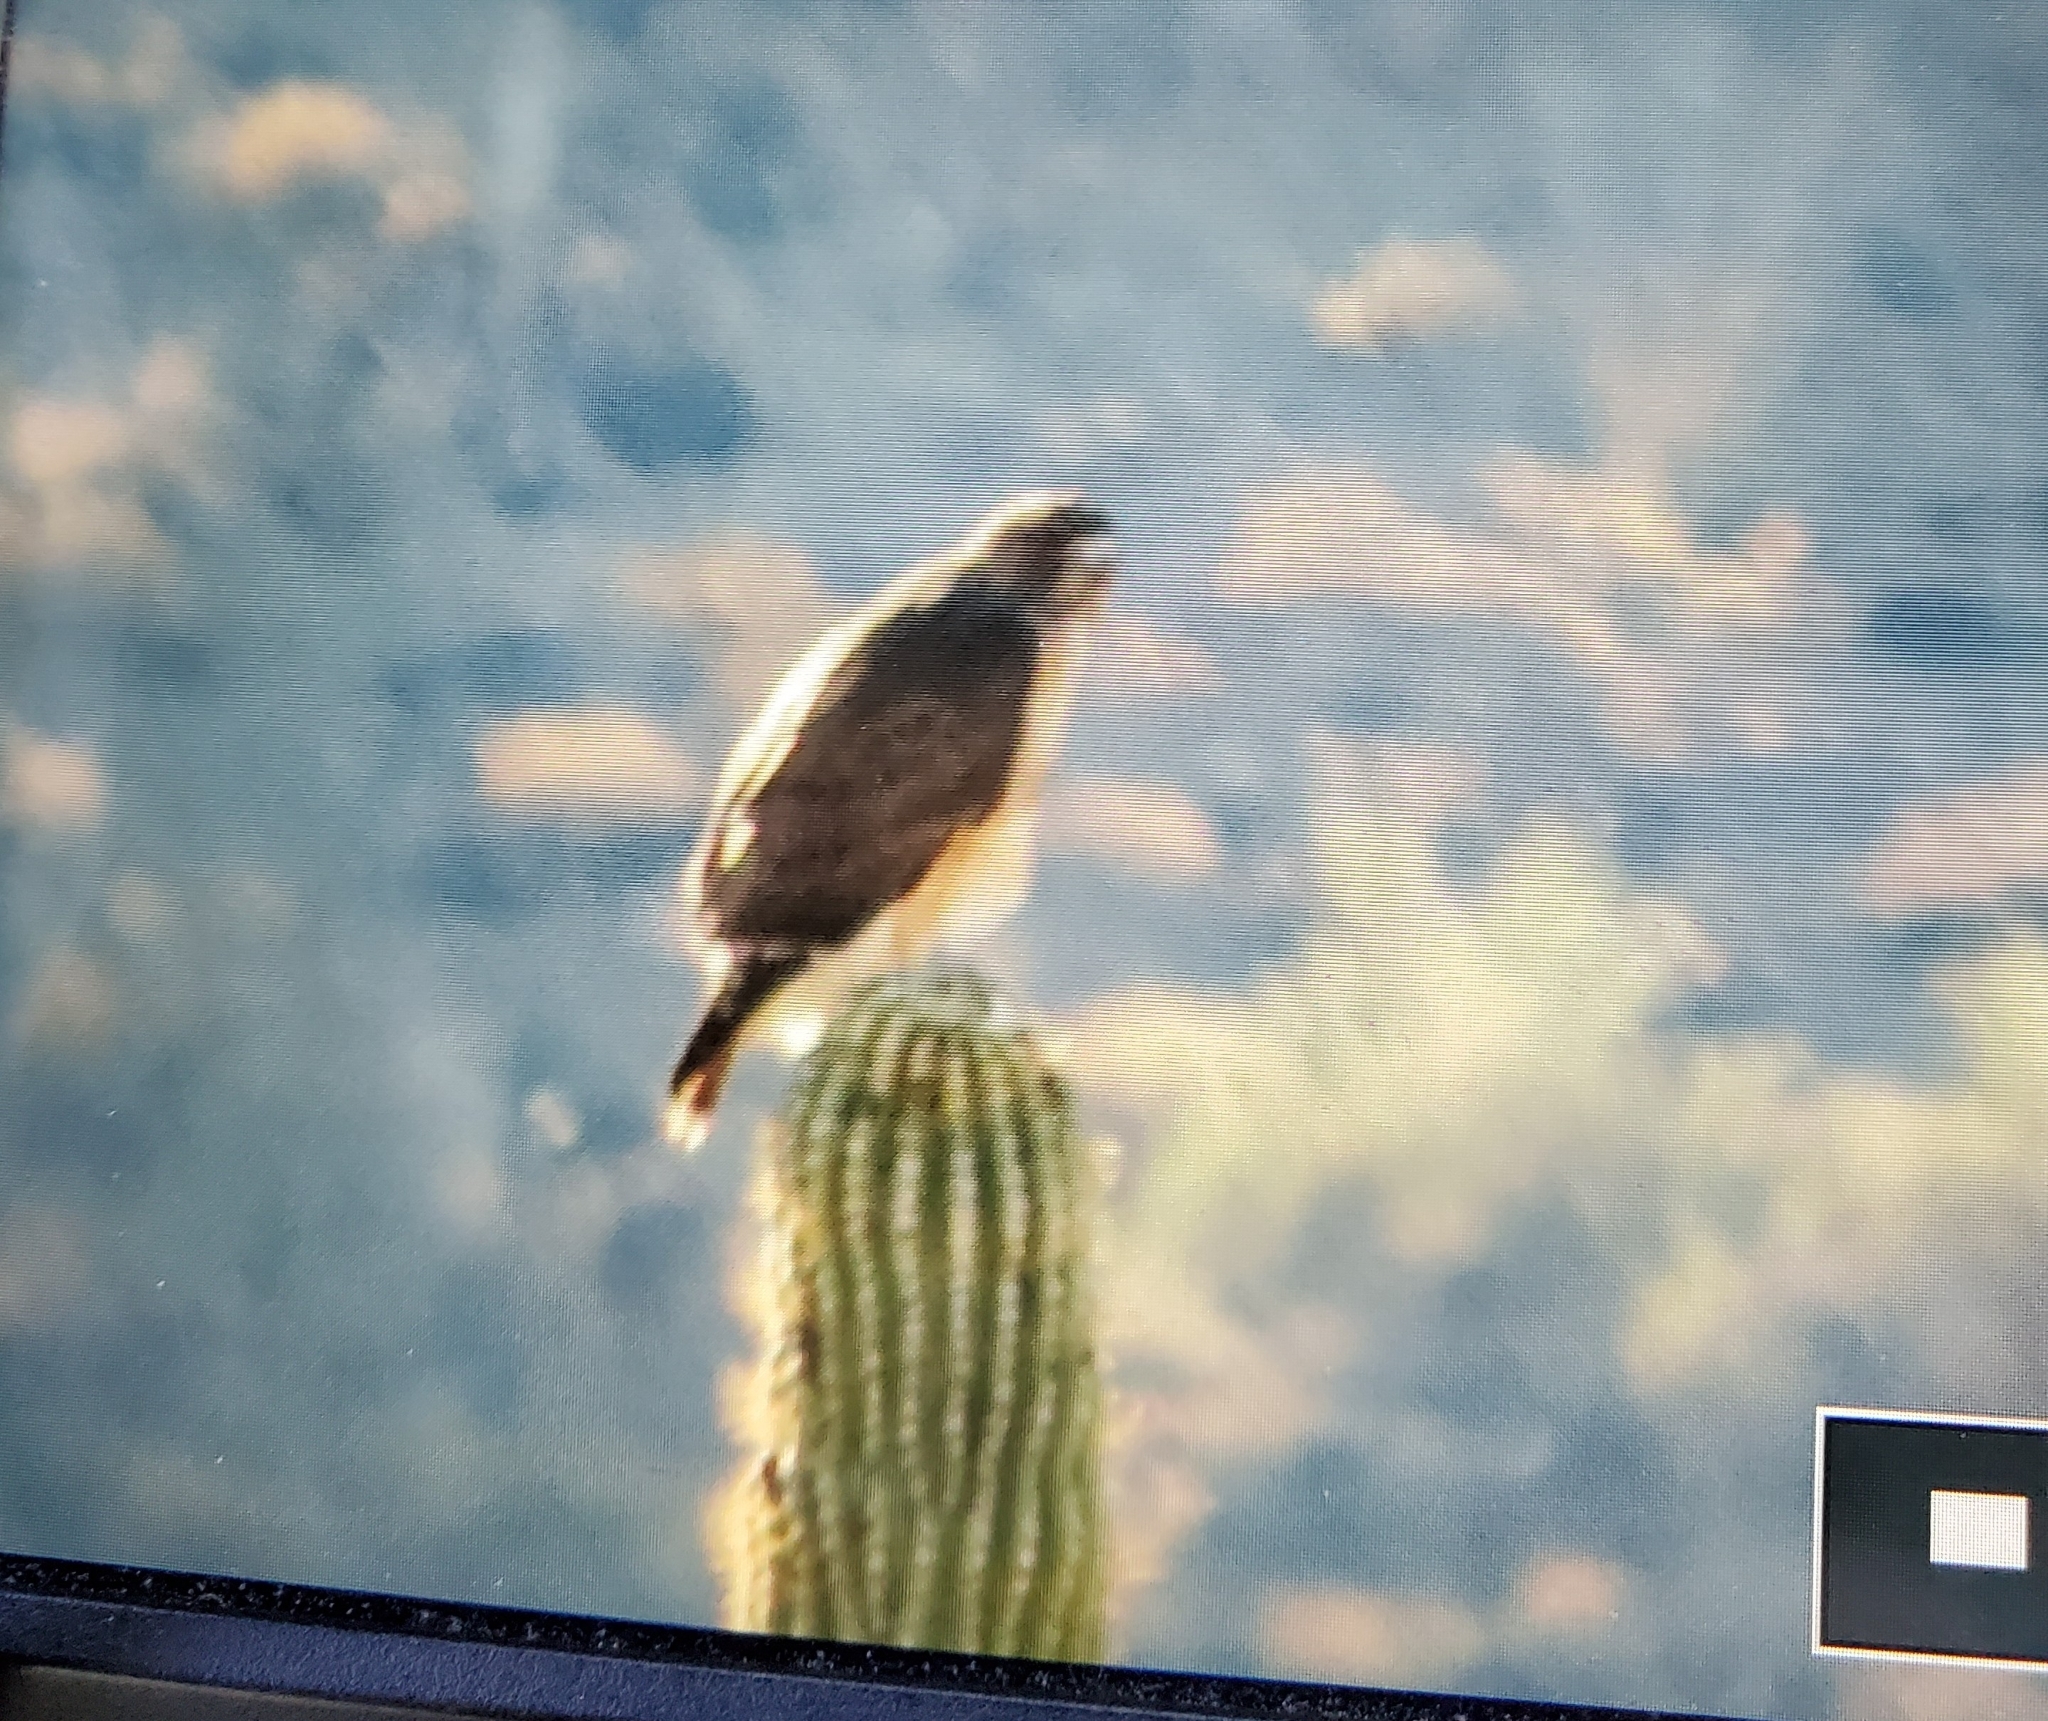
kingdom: Animalia
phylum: Chordata
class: Aves
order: Accipitriformes
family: Accipitridae
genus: Buteo
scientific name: Buteo jamaicensis
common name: Red-tailed hawk
